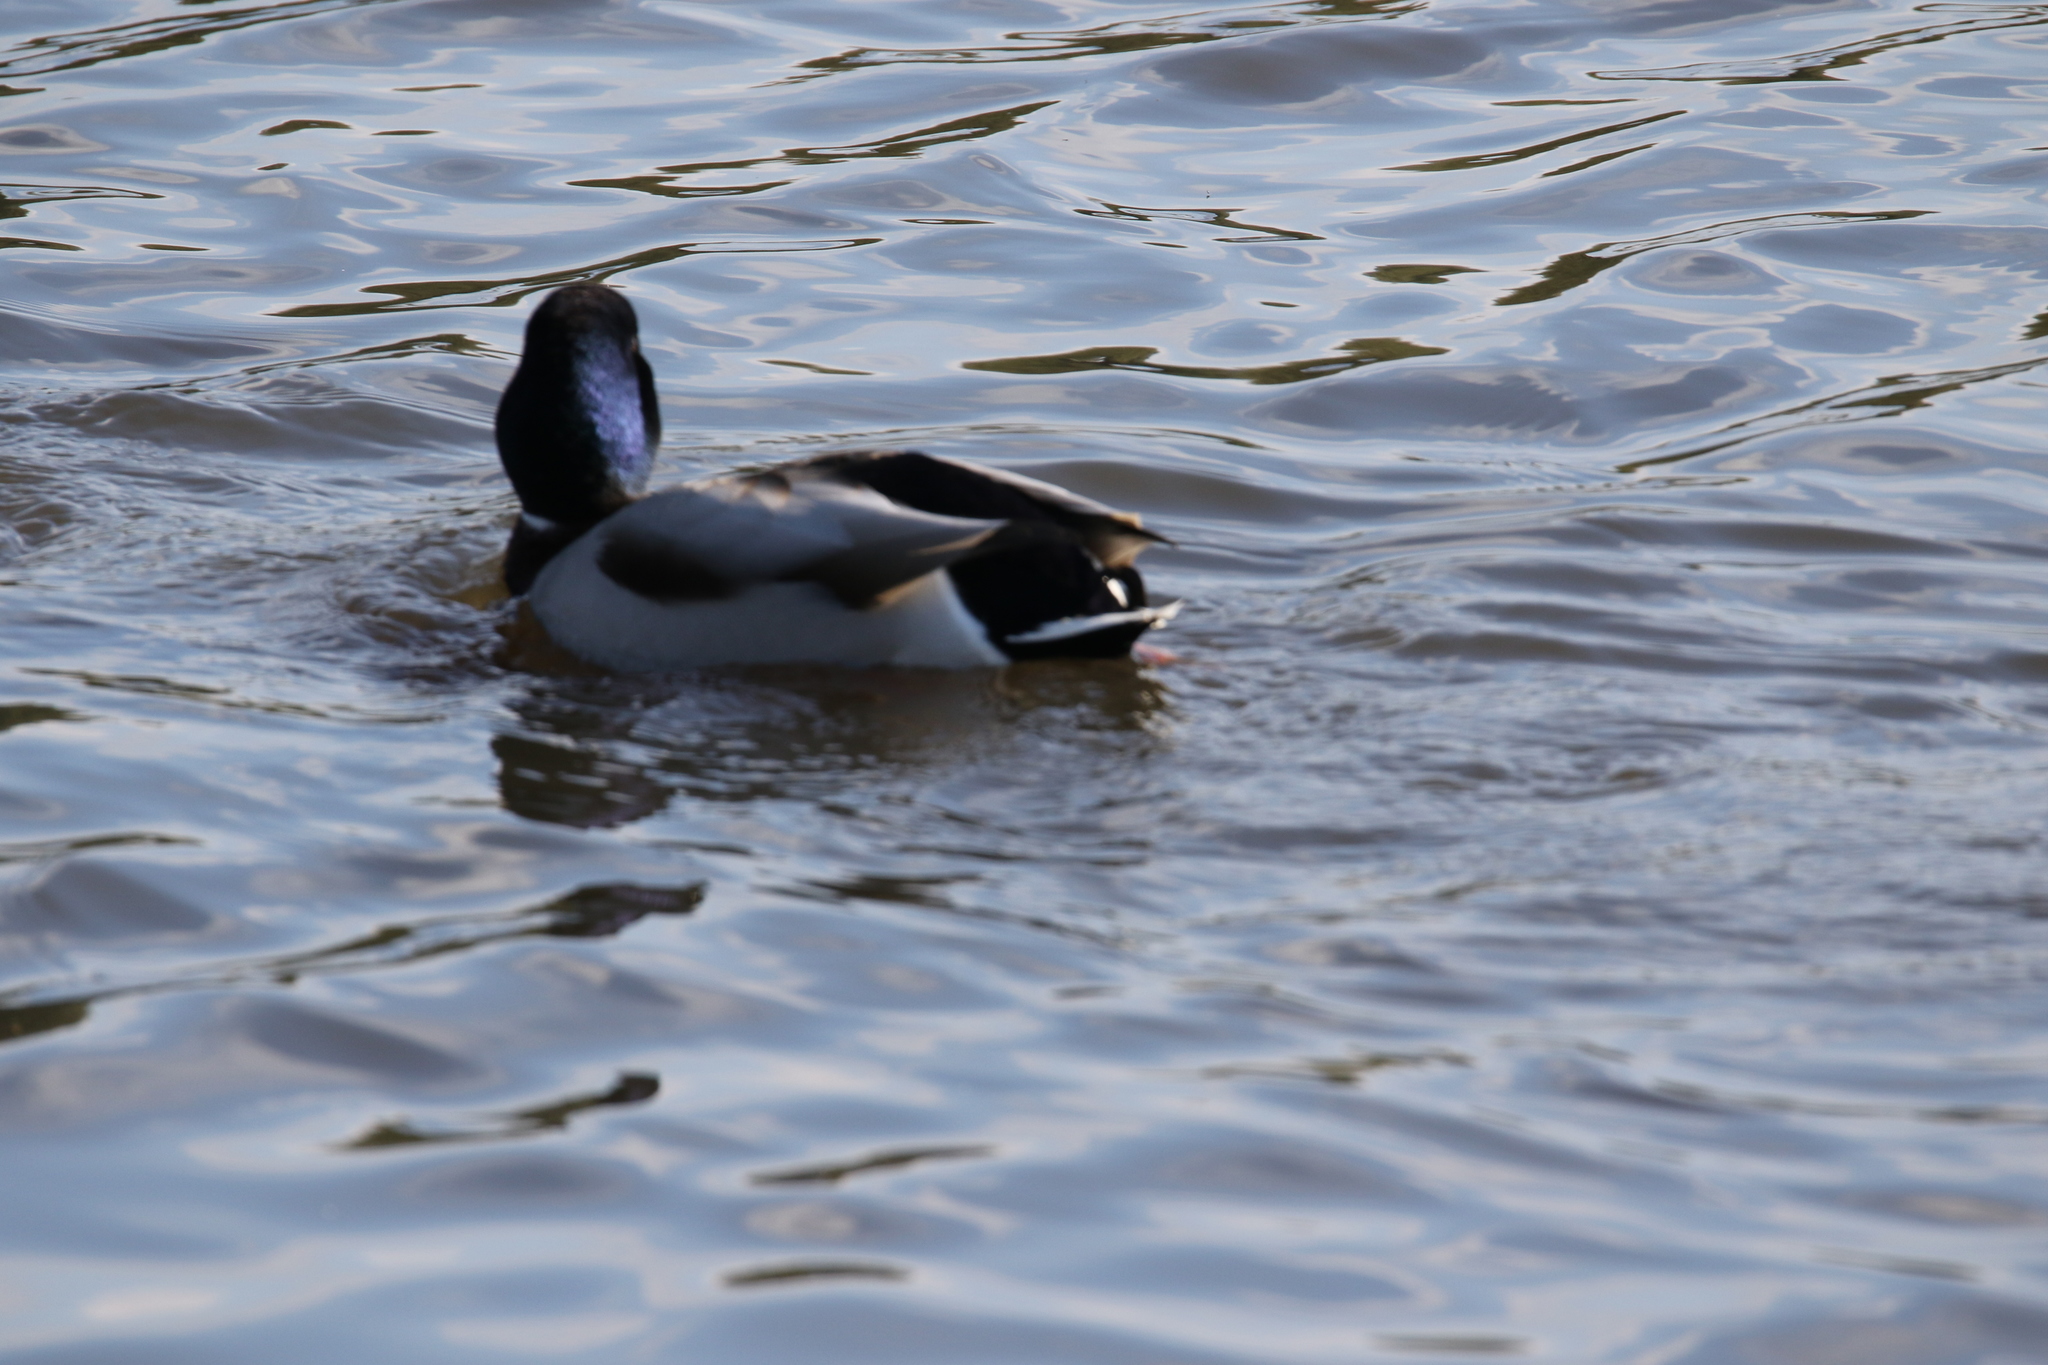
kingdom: Animalia
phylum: Chordata
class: Aves
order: Anseriformes
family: Anatidae
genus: Anas
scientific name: Anas platyrhynchos
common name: Mallard
